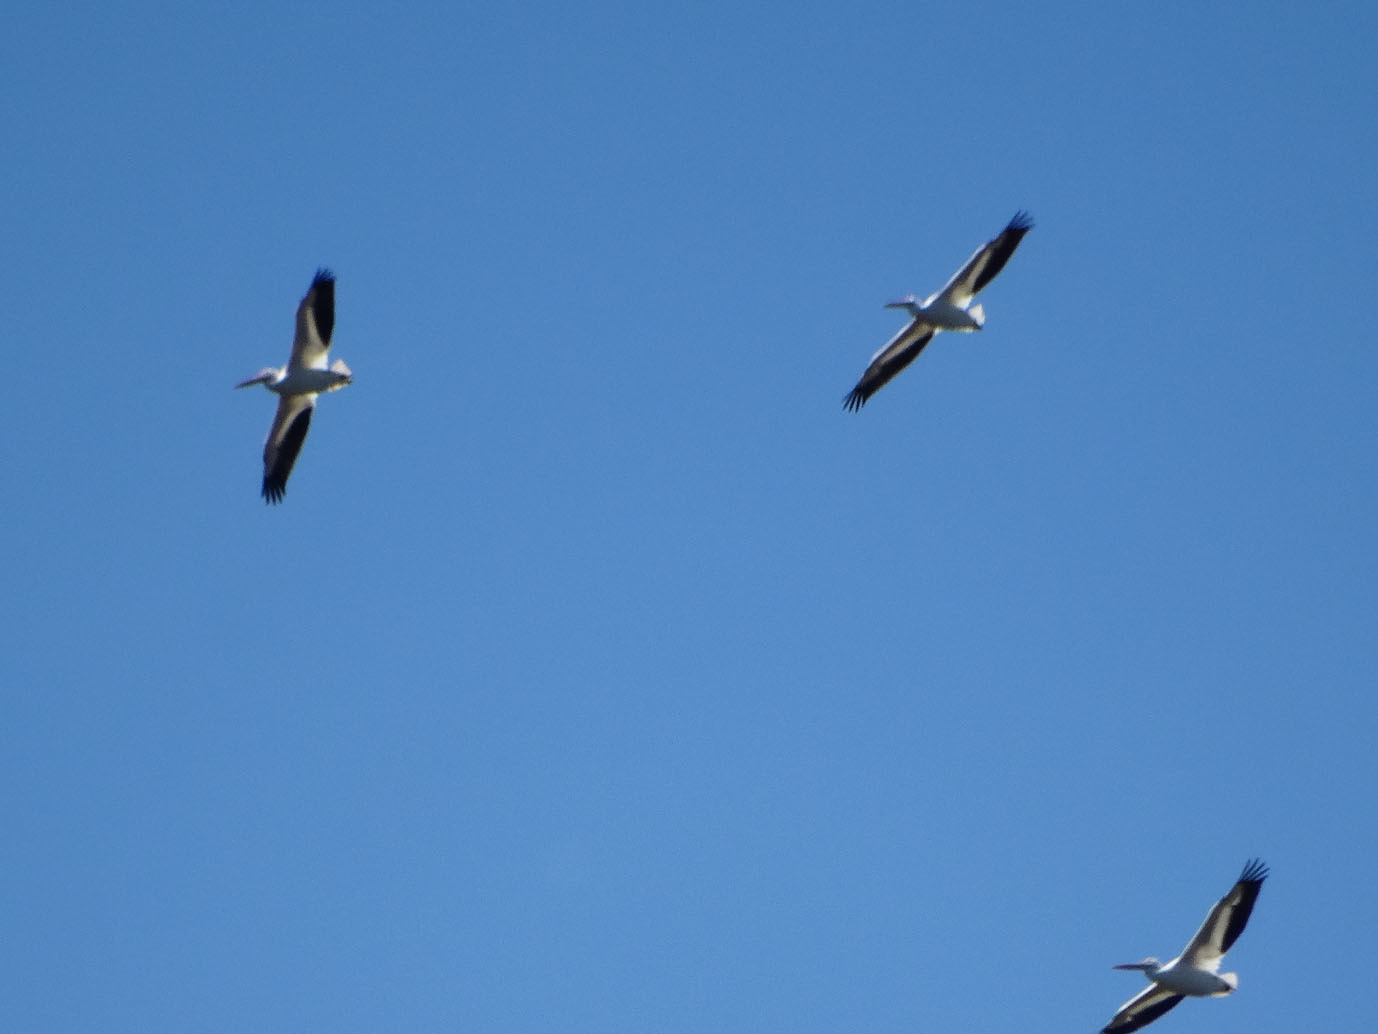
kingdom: Animalia
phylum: Chordata
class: Aves
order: Pelecaniformes
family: Pelecanidae
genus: Pelecanus
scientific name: Pelecanus erythrorhynchos
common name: American white pelican
